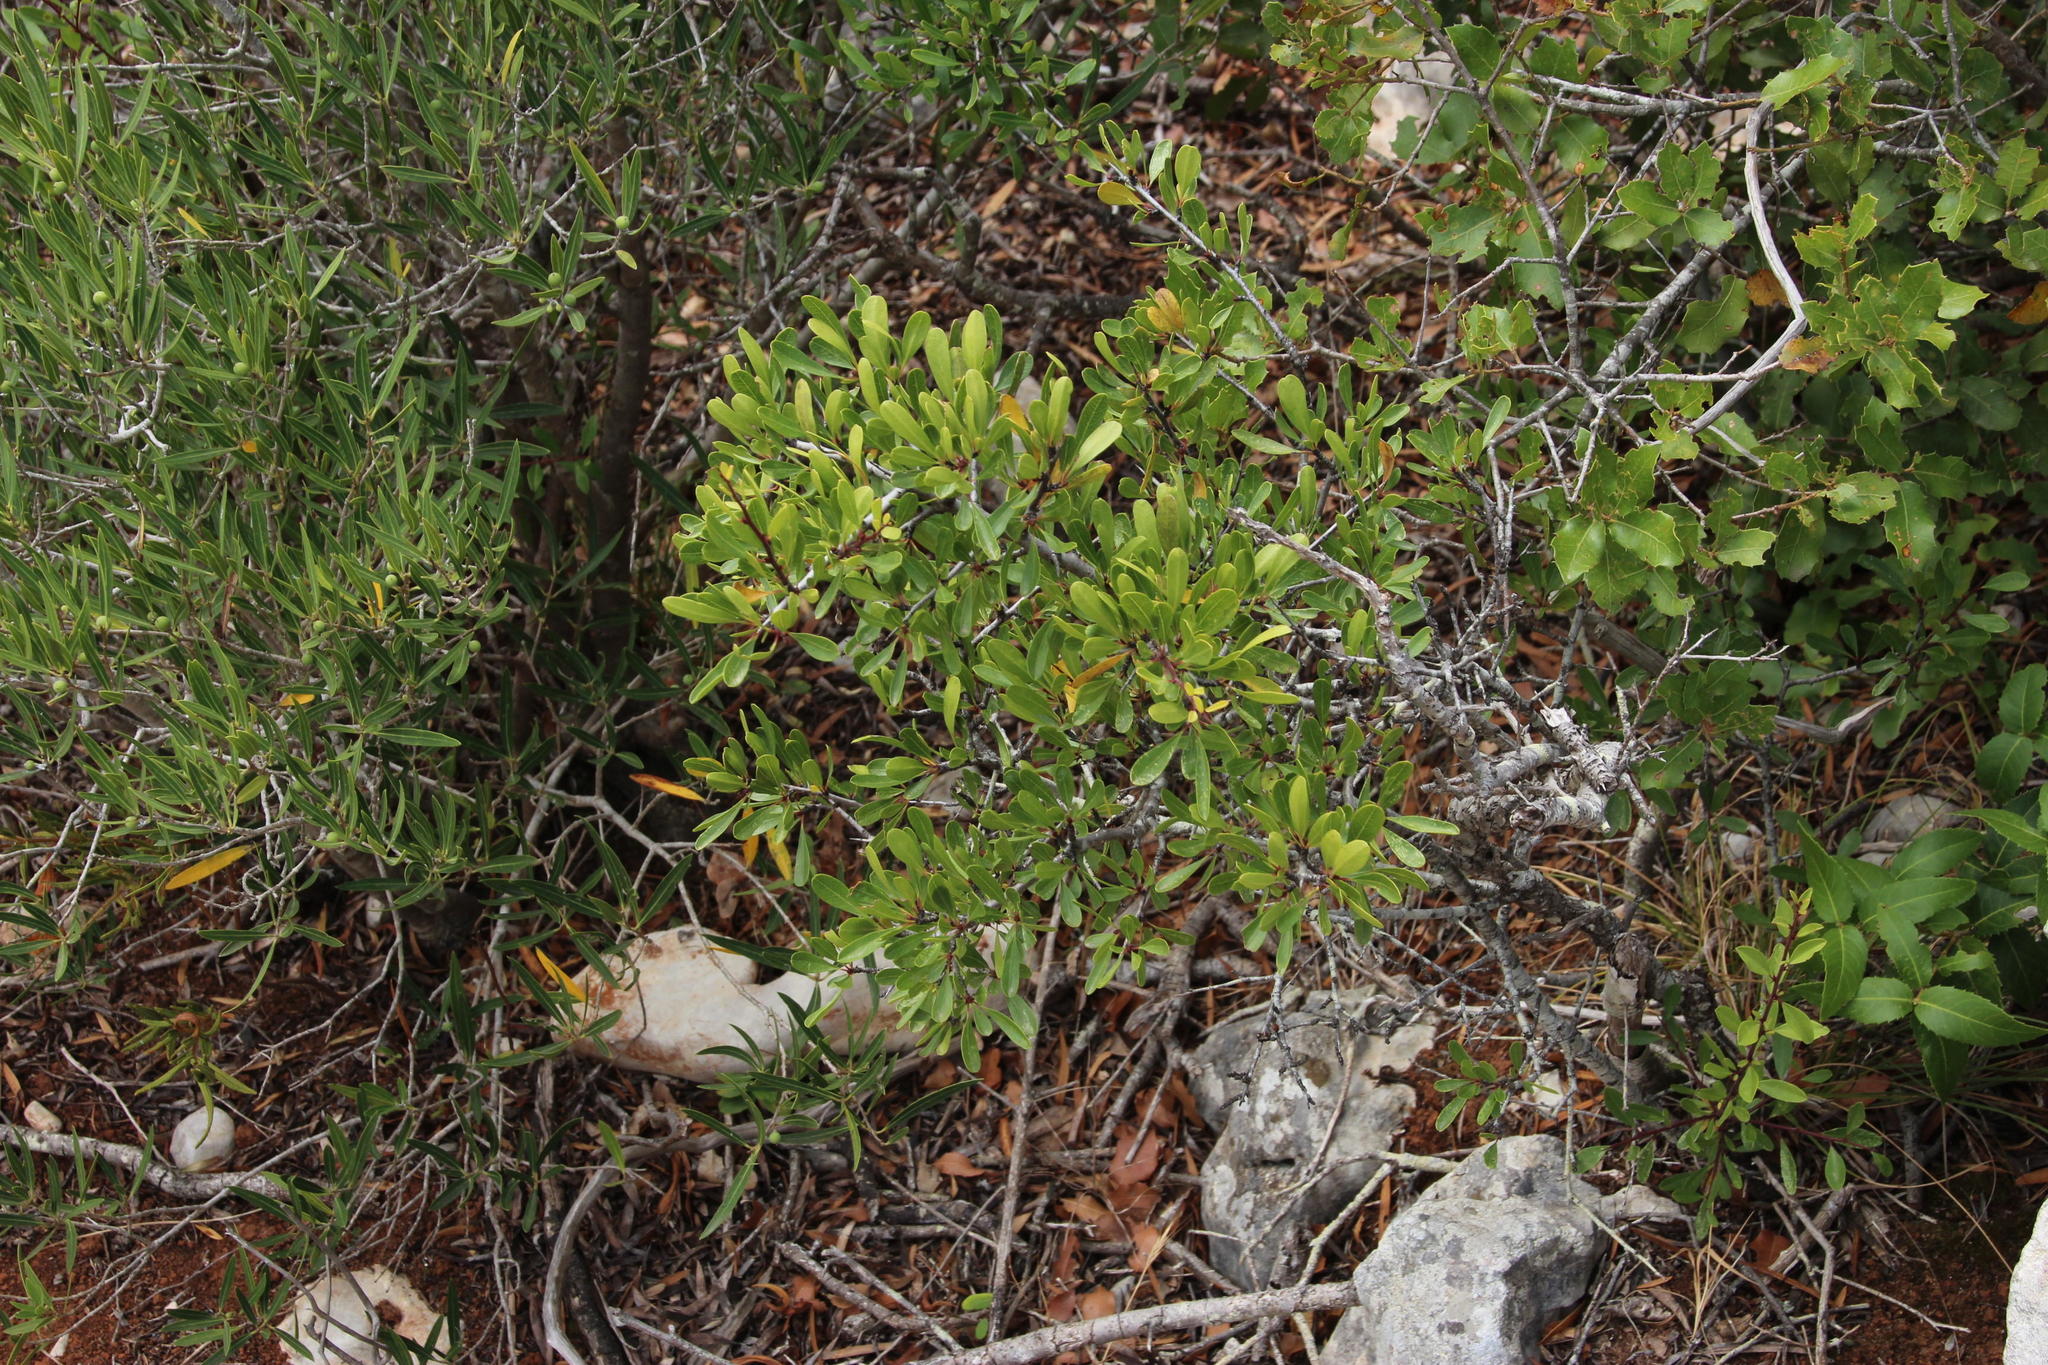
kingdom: Plantae
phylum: Tracheophyta
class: Magnoliopsida
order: Rosales
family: Rhamnaceae
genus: Rhamnus
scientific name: Rhamnus oleoides
